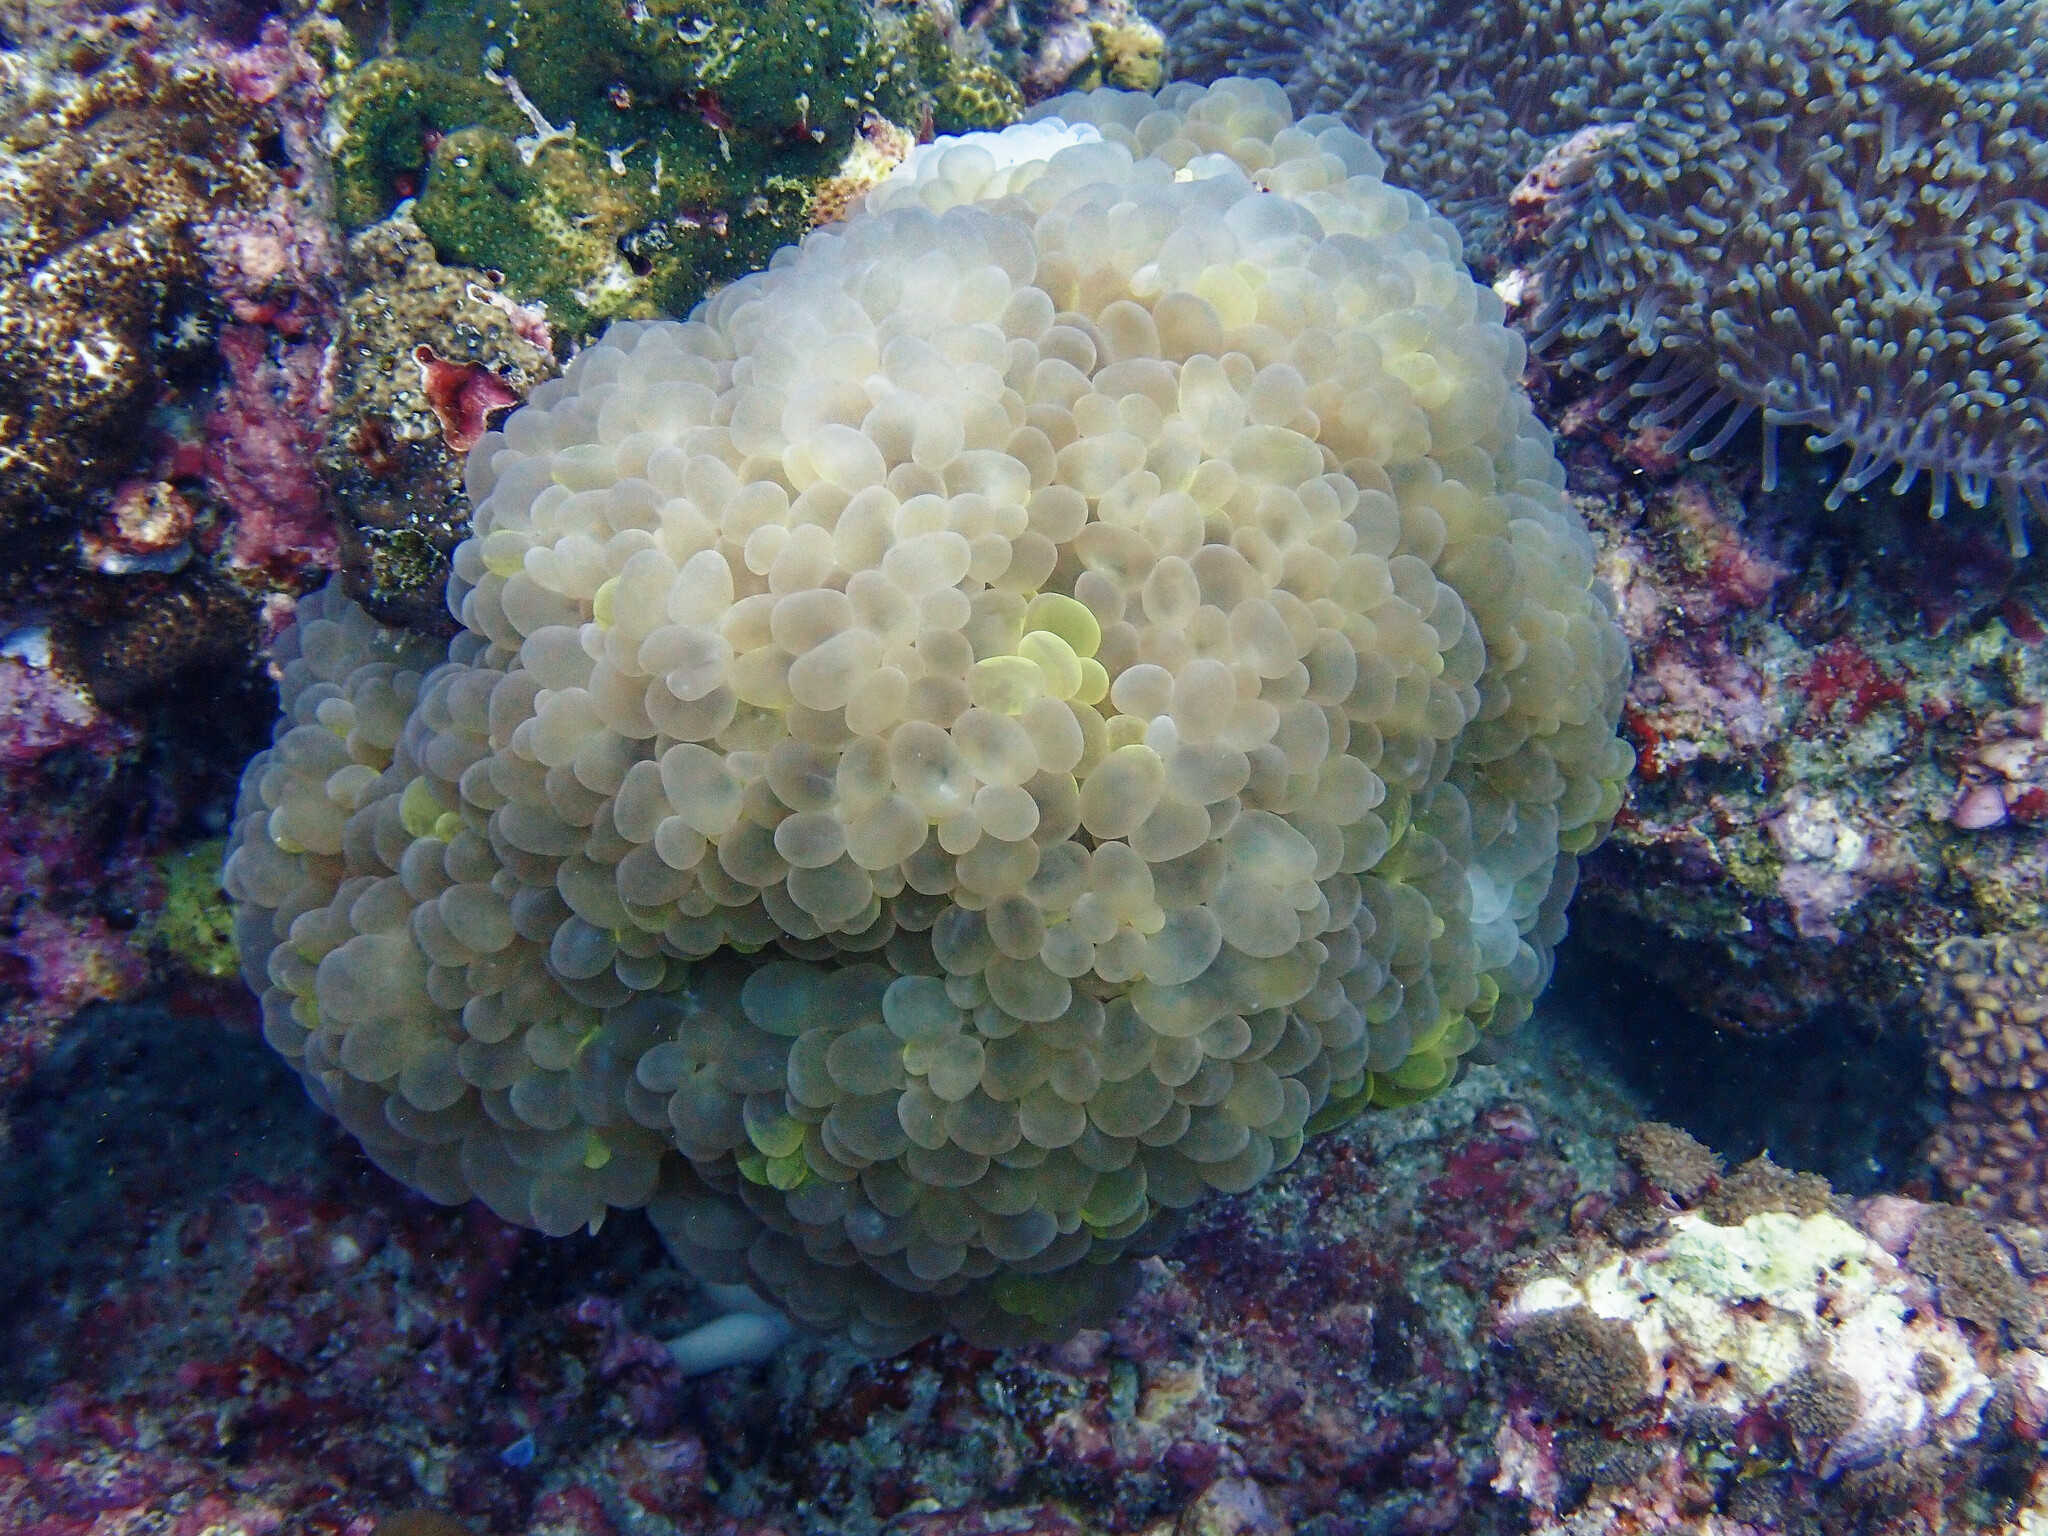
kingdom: Animalia
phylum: Cnidaria
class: Anthozoa
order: Scleractinia
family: Plerogyridae
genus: Plerogyra
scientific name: Plerogyra sinuosa
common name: Bubble coral
